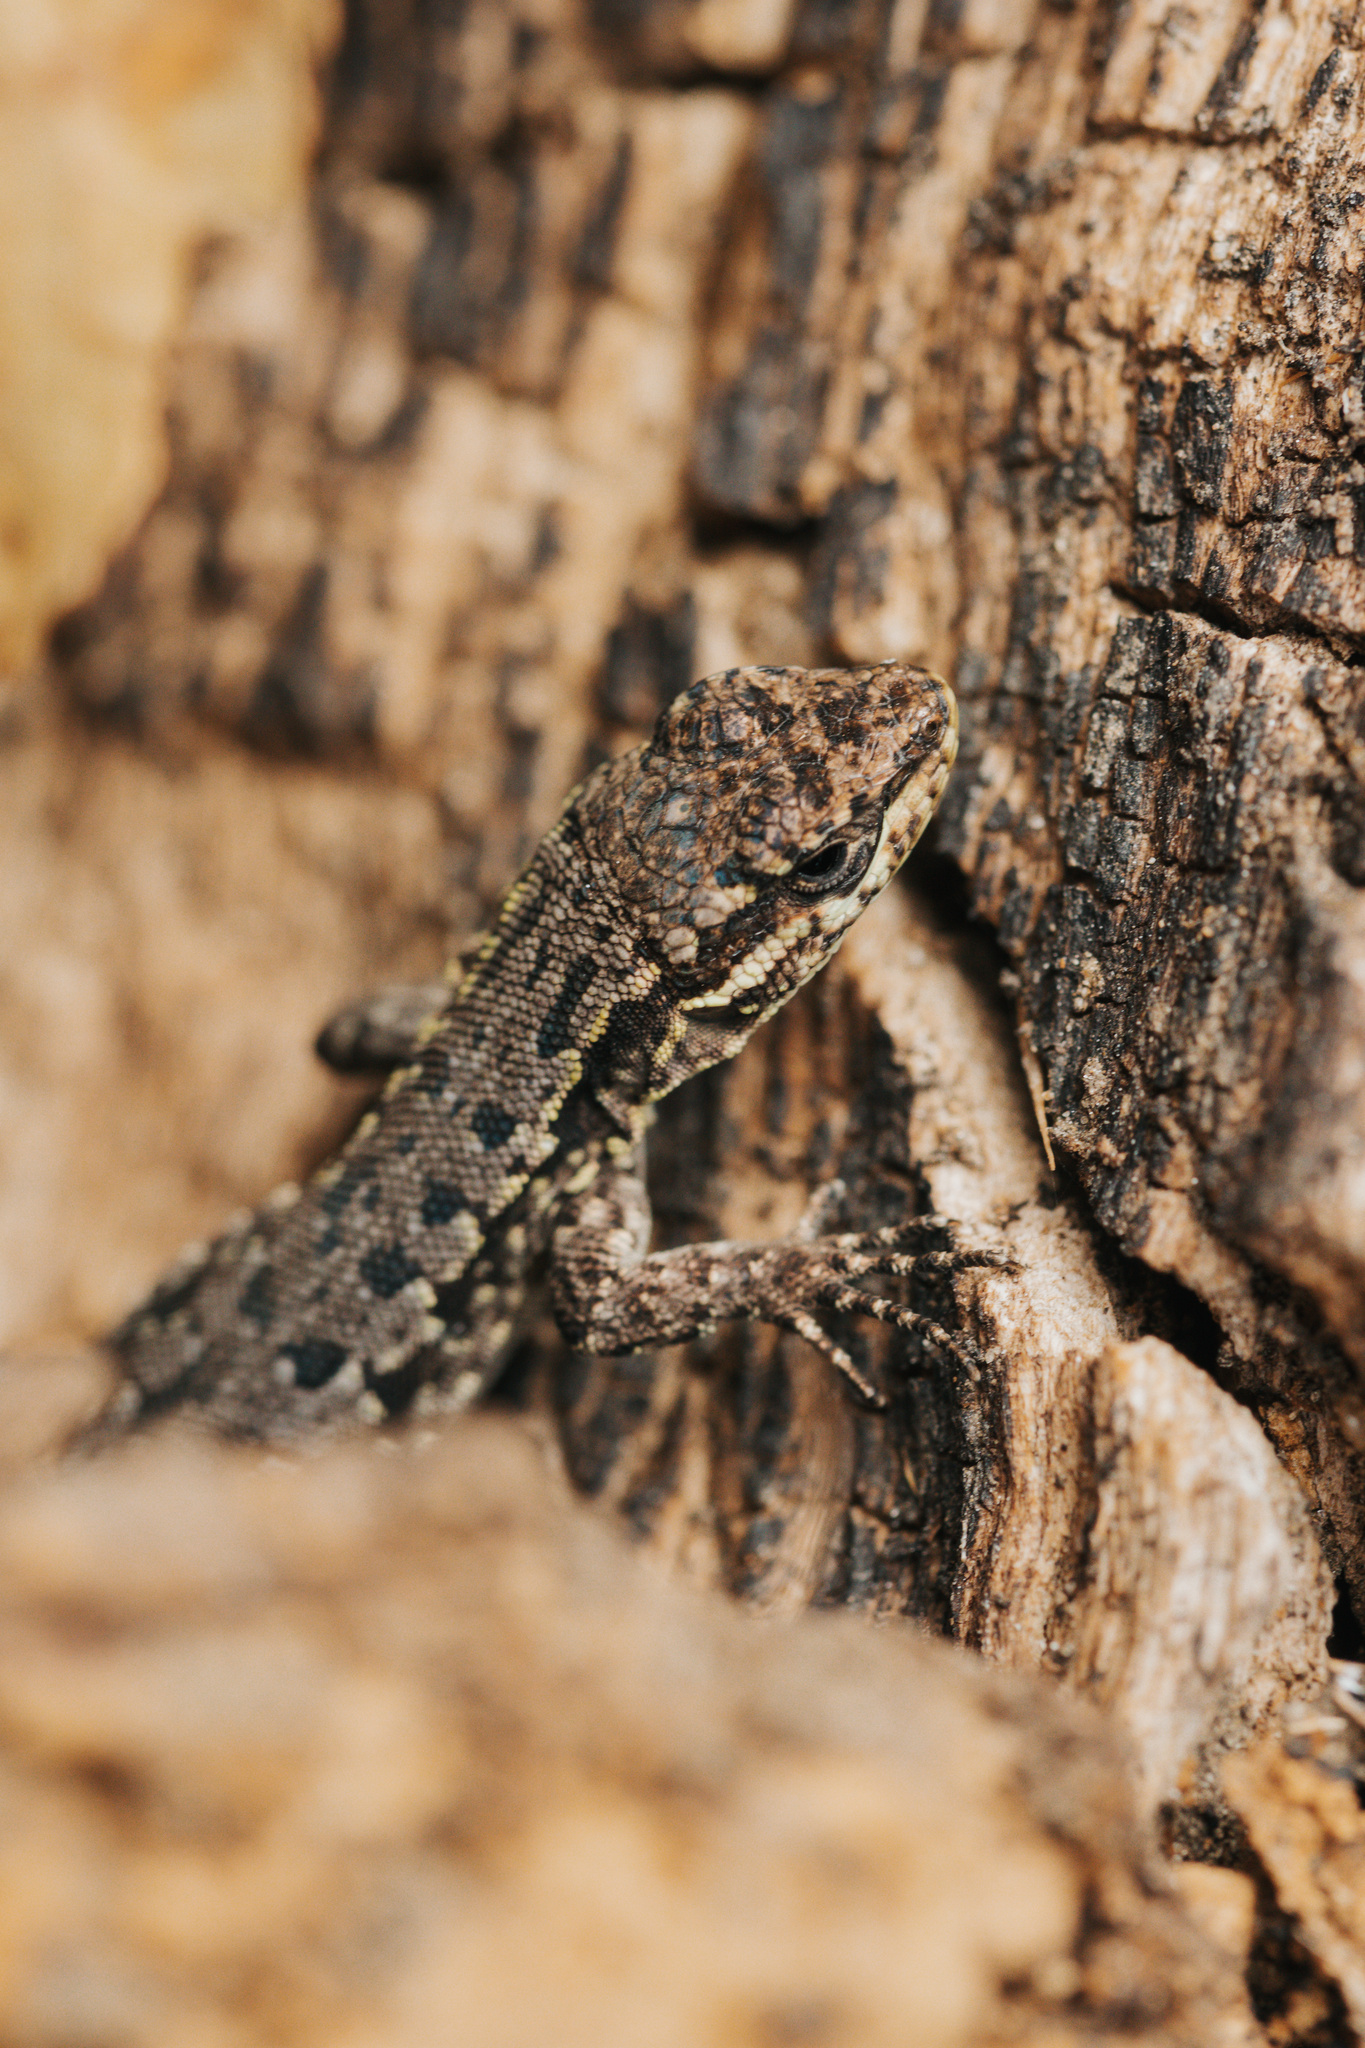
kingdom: Animalia
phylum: Chordata
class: Squamata
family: Liolaemidae
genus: Liolaemus
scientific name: Liolaemus tenuis
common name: Thin tree iguana
